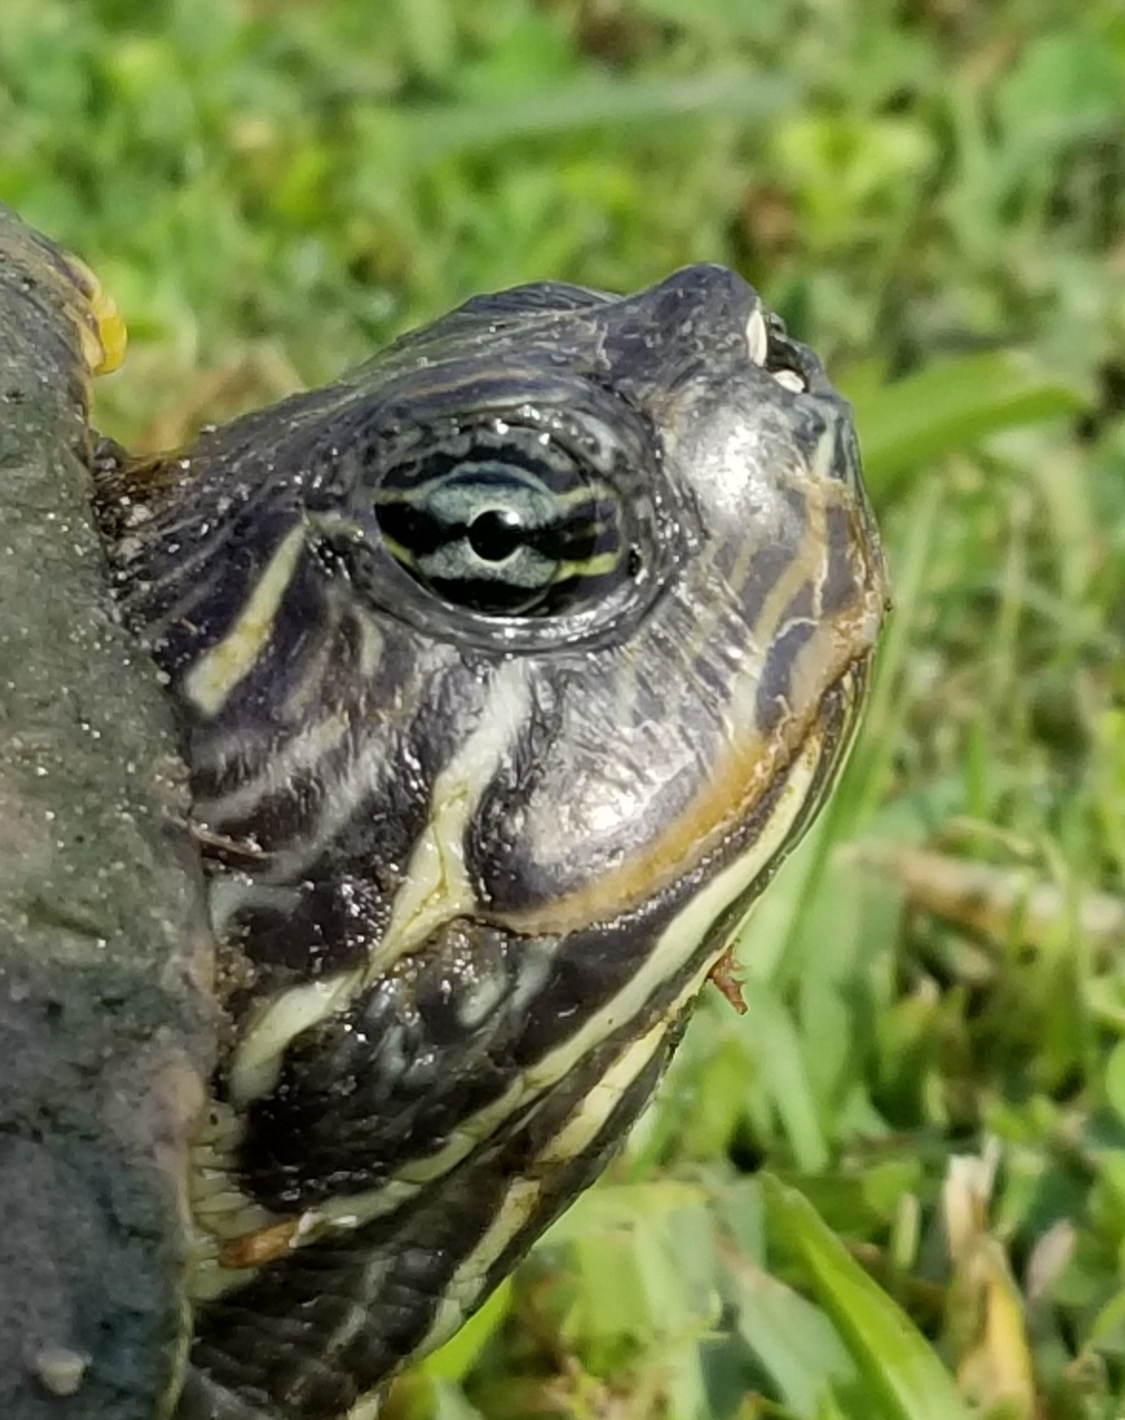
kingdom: Animalia
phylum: Chordata
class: Testudines
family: Emydidae
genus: Pseudemys
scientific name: Pseudemys concinna
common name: Eastern river cooter
